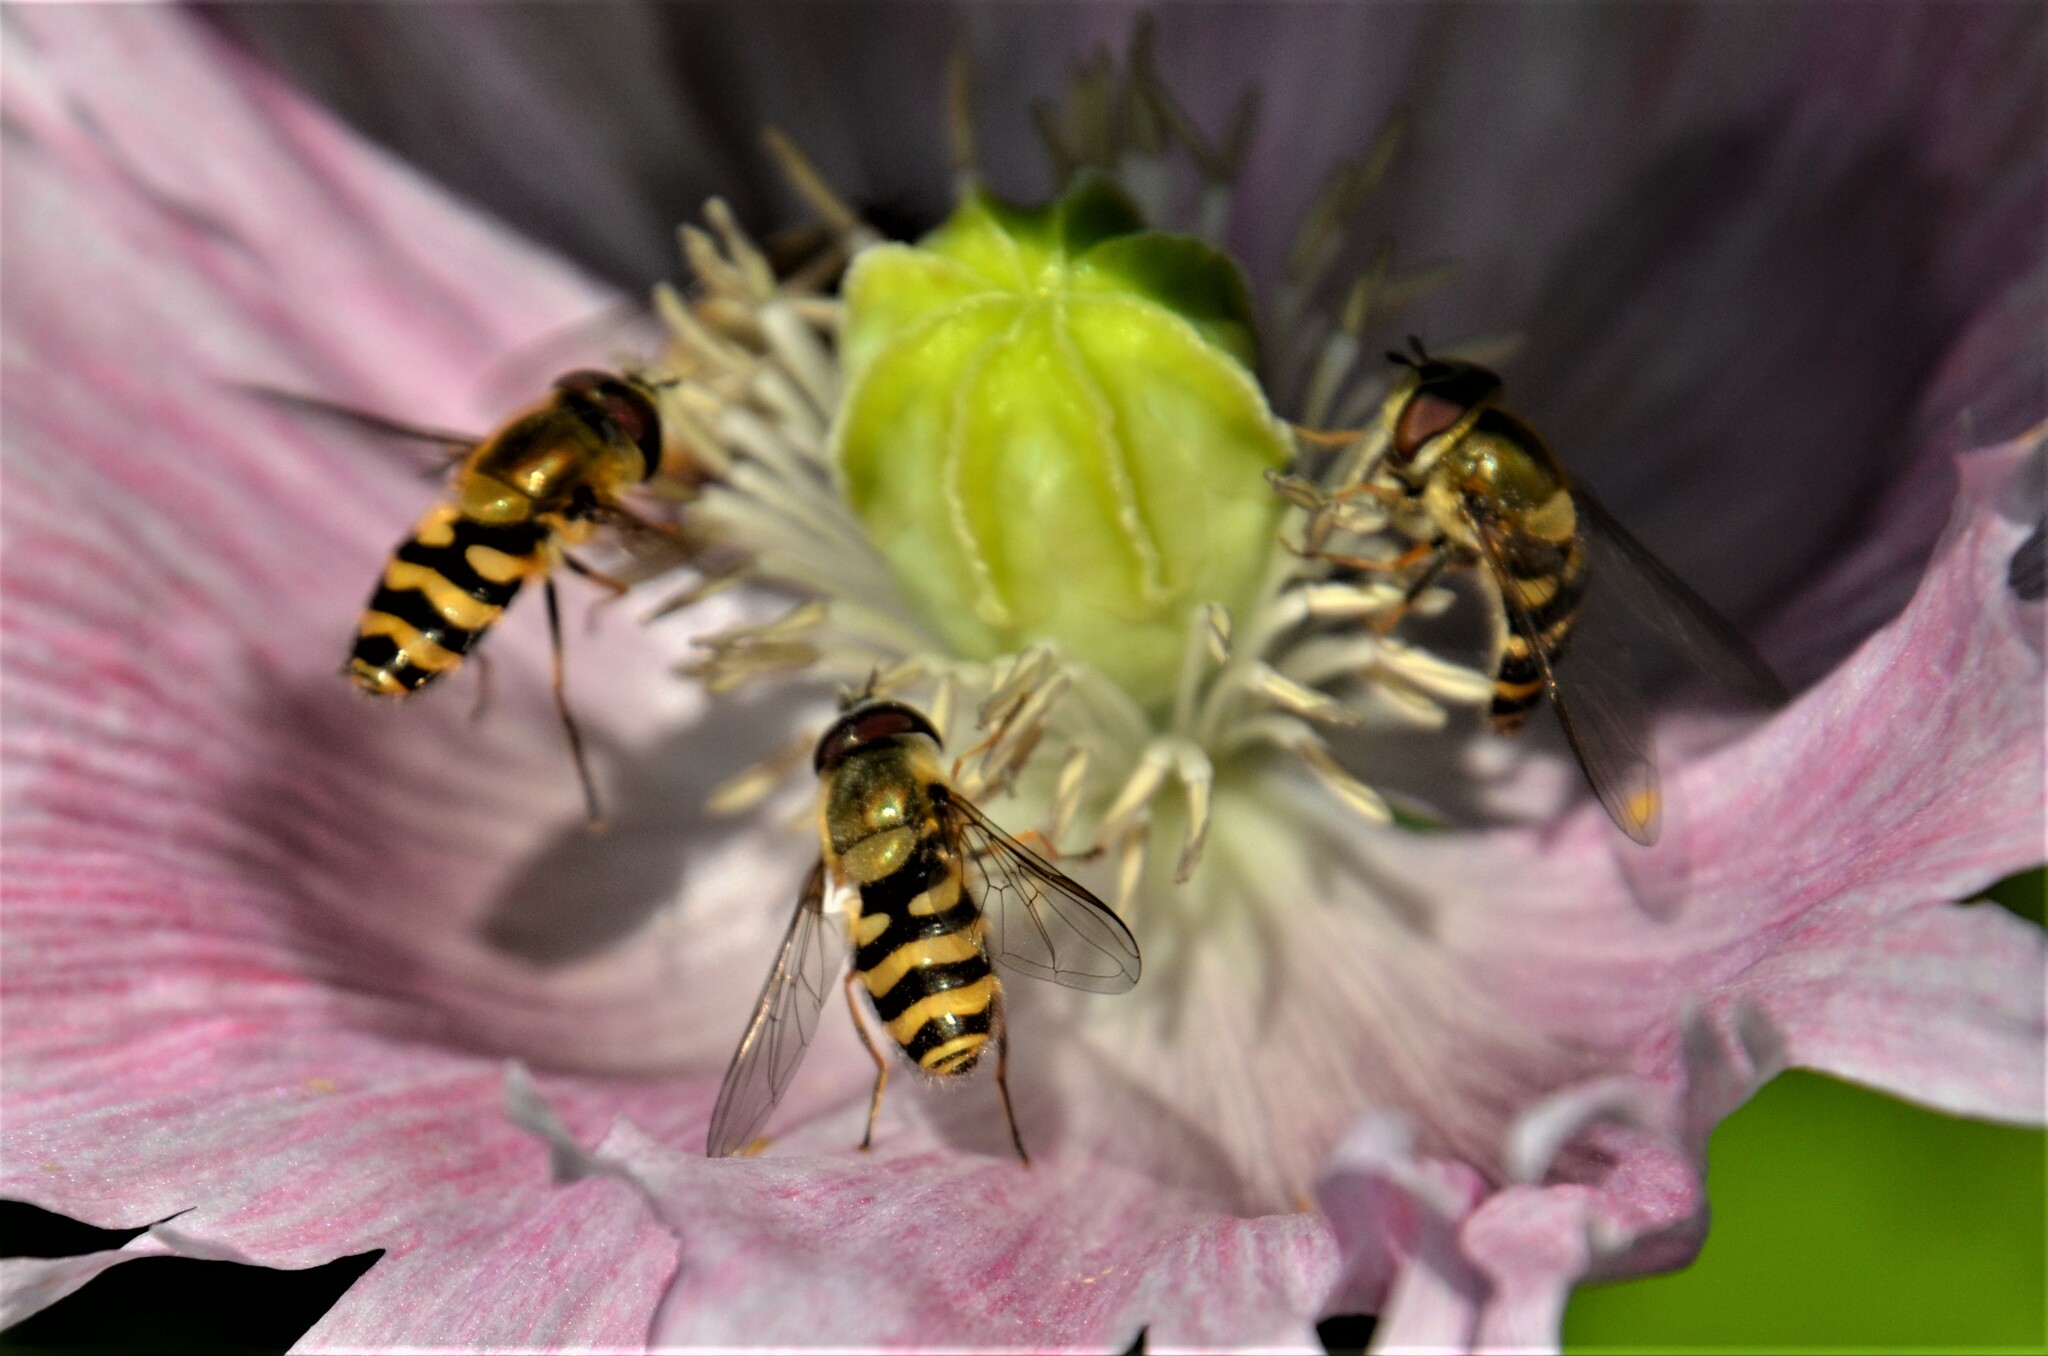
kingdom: Animalia
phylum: Arthropoda
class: Insecta
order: Diptera
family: Syrphidae
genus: Syrphus
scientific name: Syrphus
